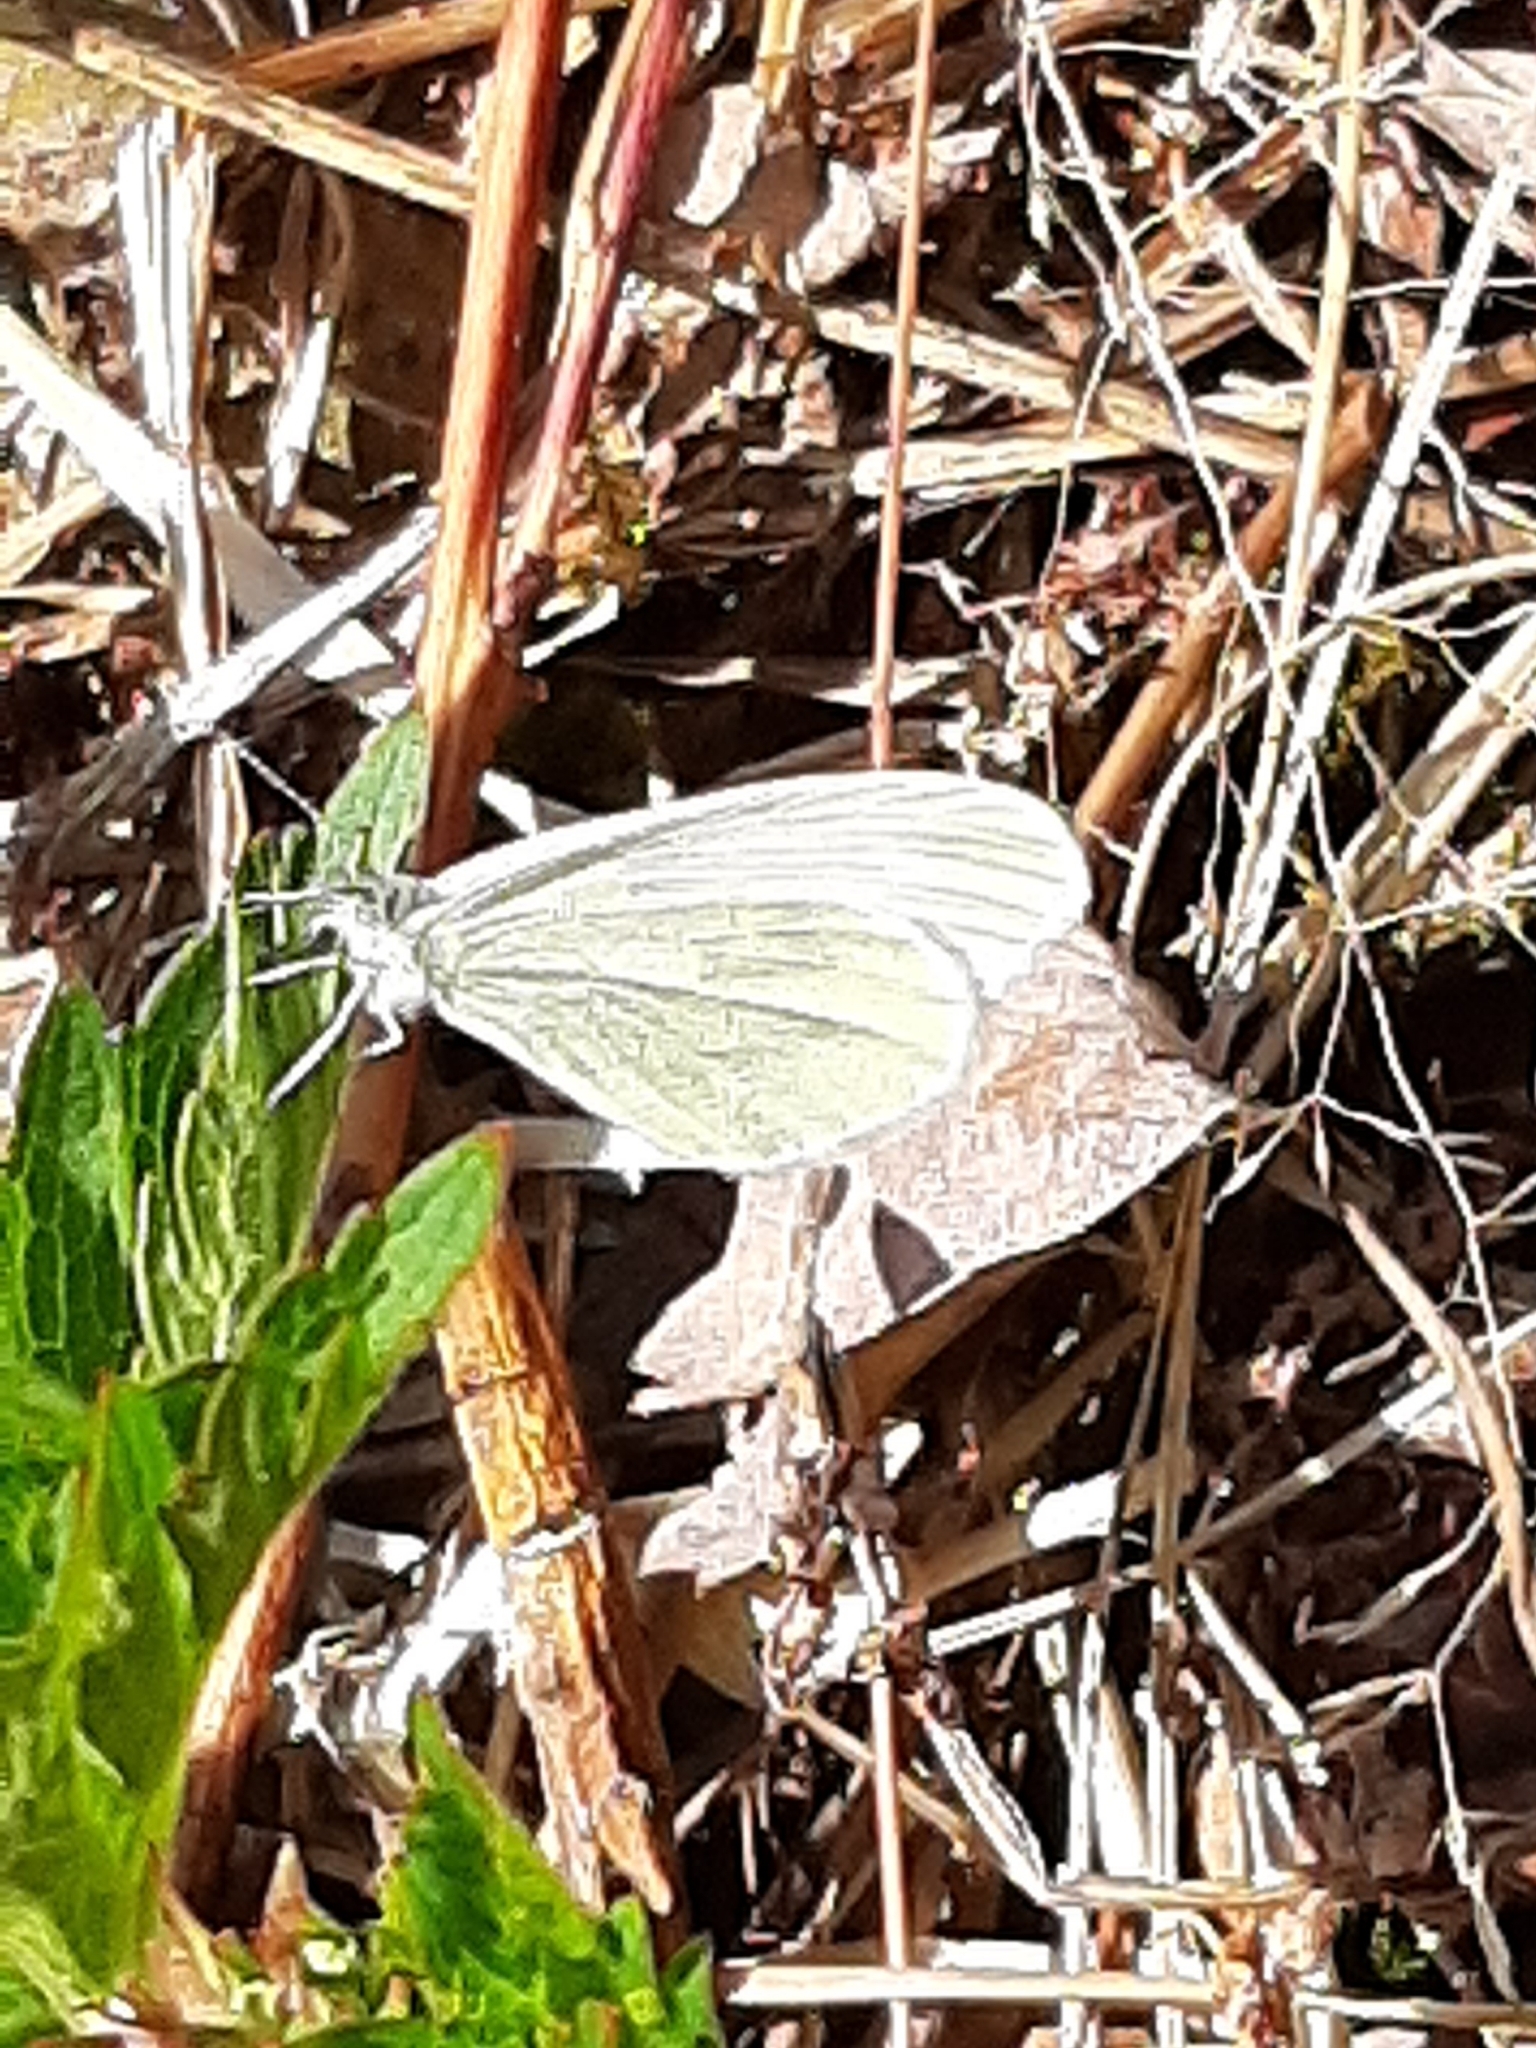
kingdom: Animalia
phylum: Arthropoda
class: Insecta
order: Lepidoptera
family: Pieridae
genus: Leptidea
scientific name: Leptidea
